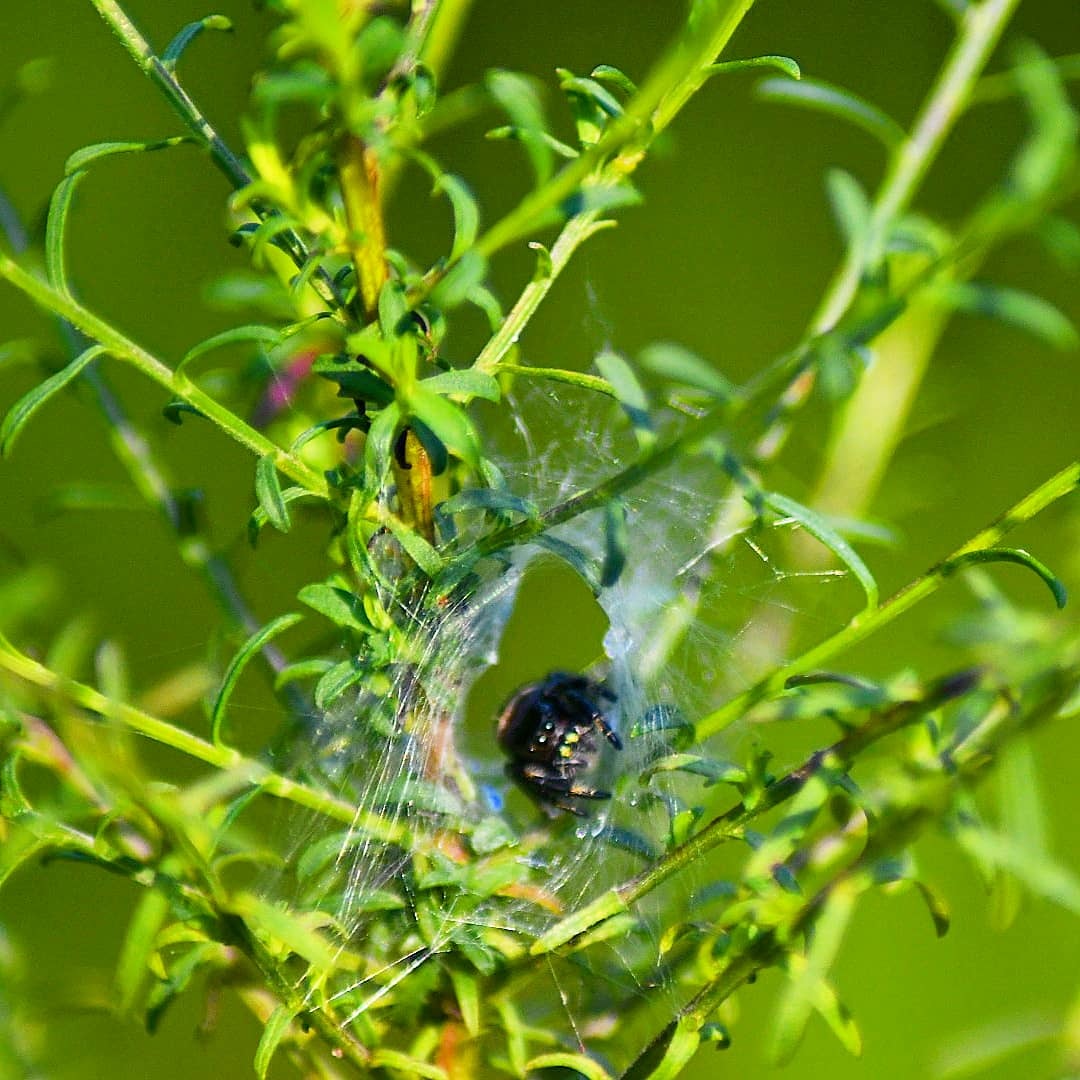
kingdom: Animalia
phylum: Arthropoda
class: Arachnida
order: Araneae
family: Salticidae
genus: Phidippus
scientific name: Phidippus audax
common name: Bold jumper
